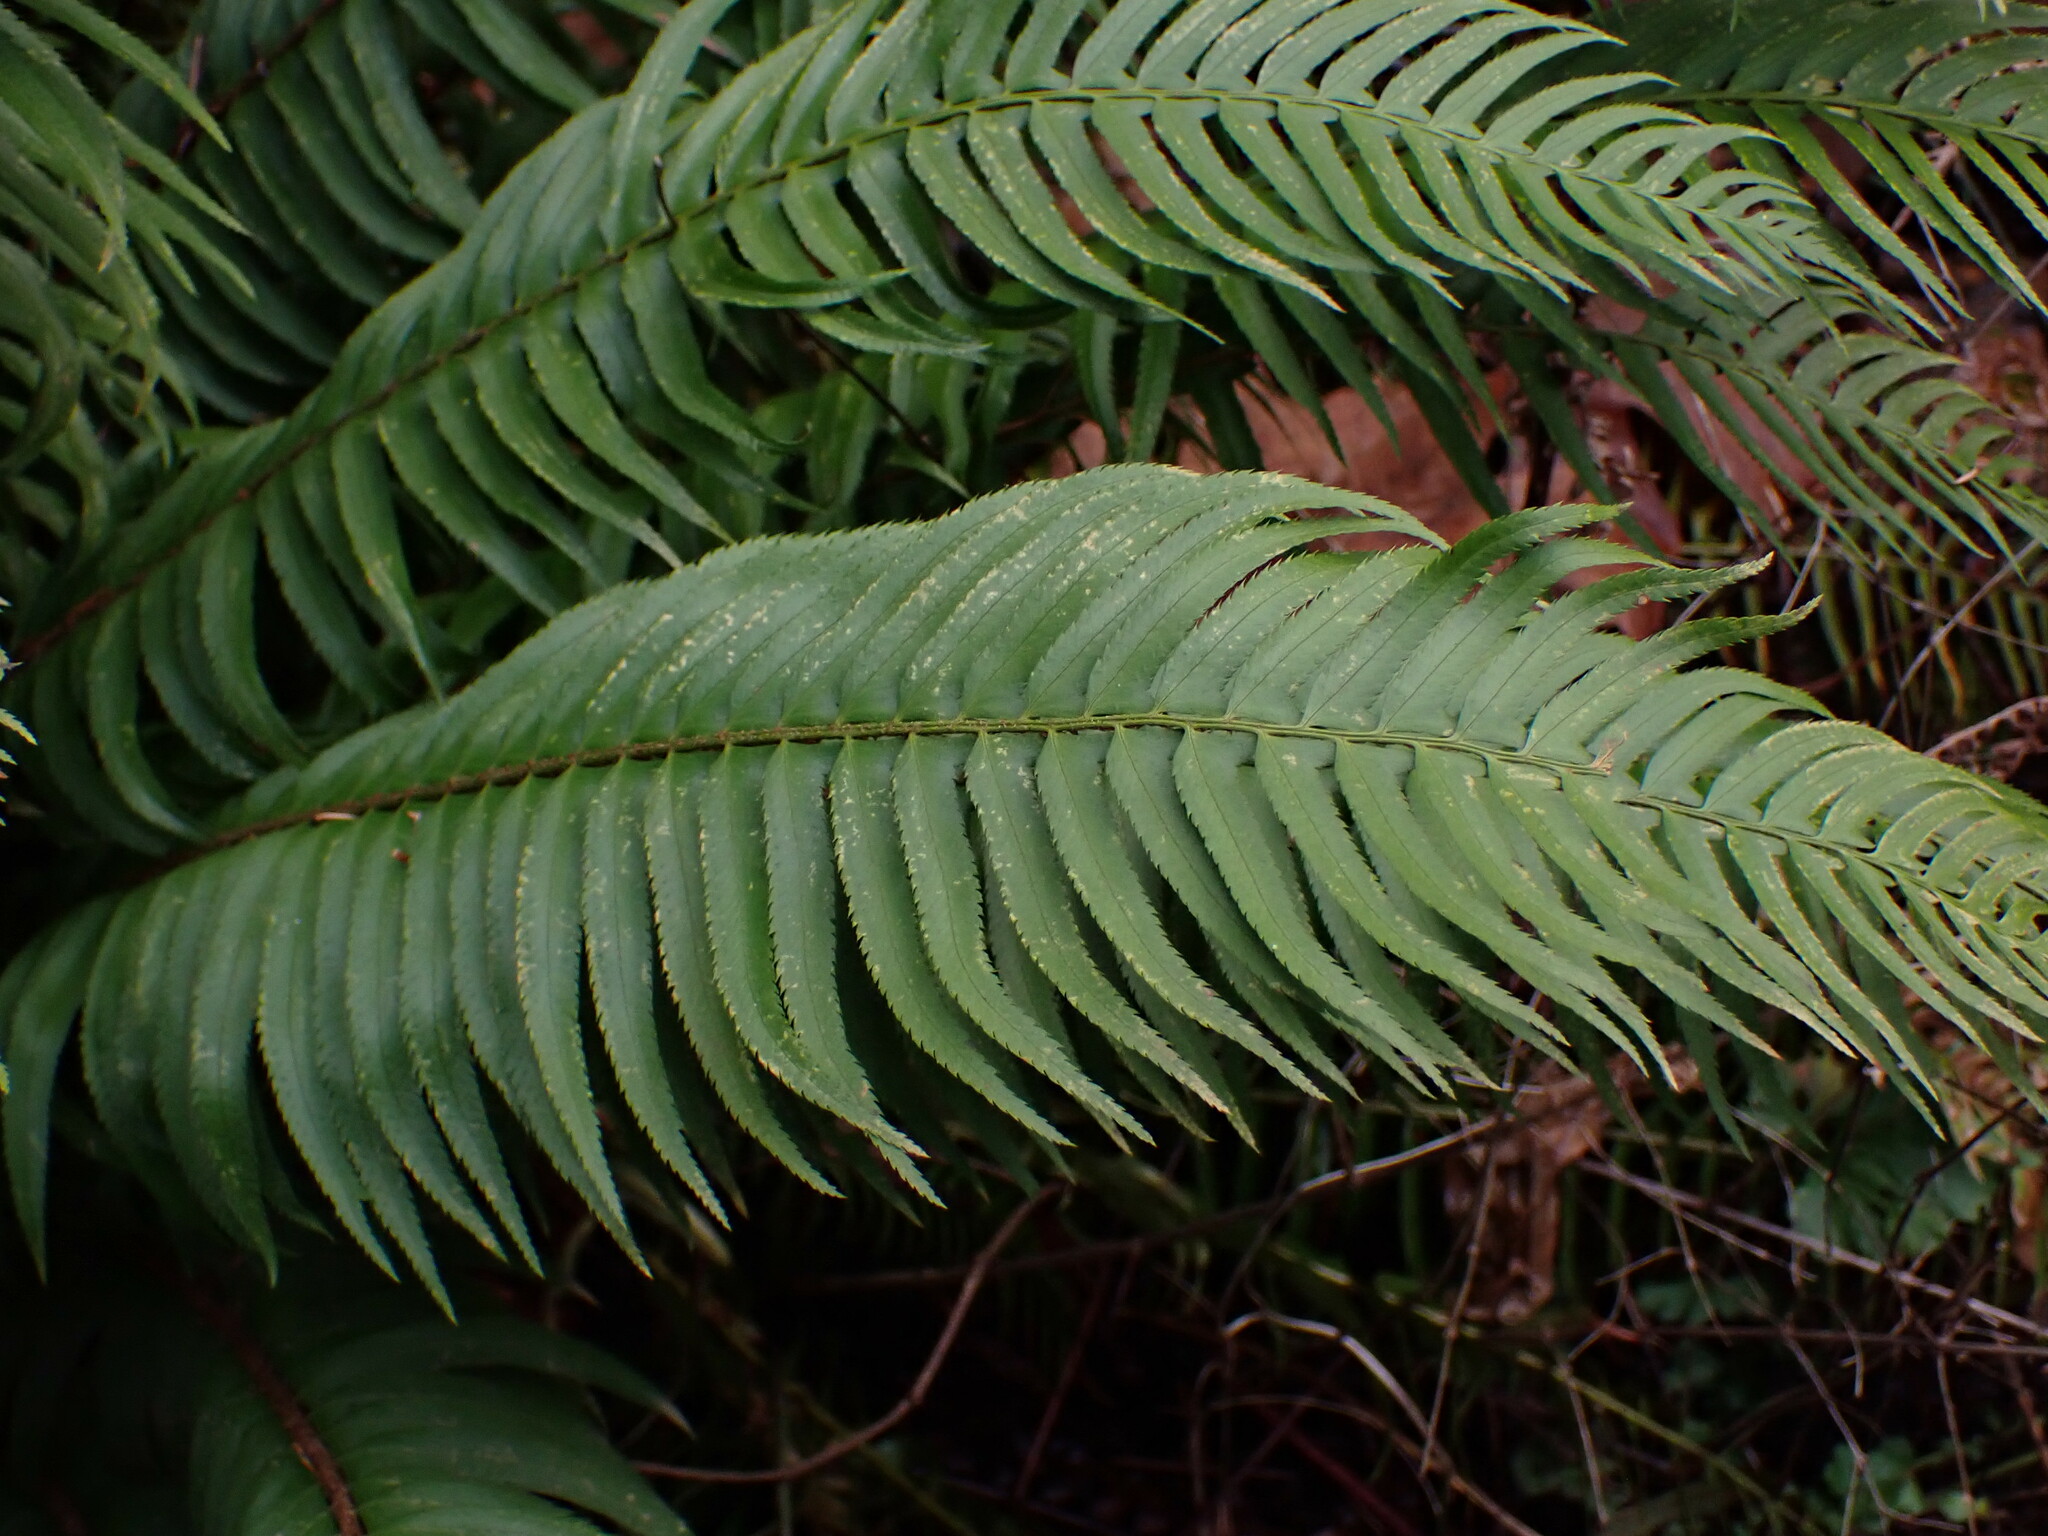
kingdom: Plantae
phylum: Tracheophyta
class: Polypodiopsida
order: Polypodiales
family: Dryopteridaceae
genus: Polystichum
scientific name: Polystichum munitum
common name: Western sword-fern
